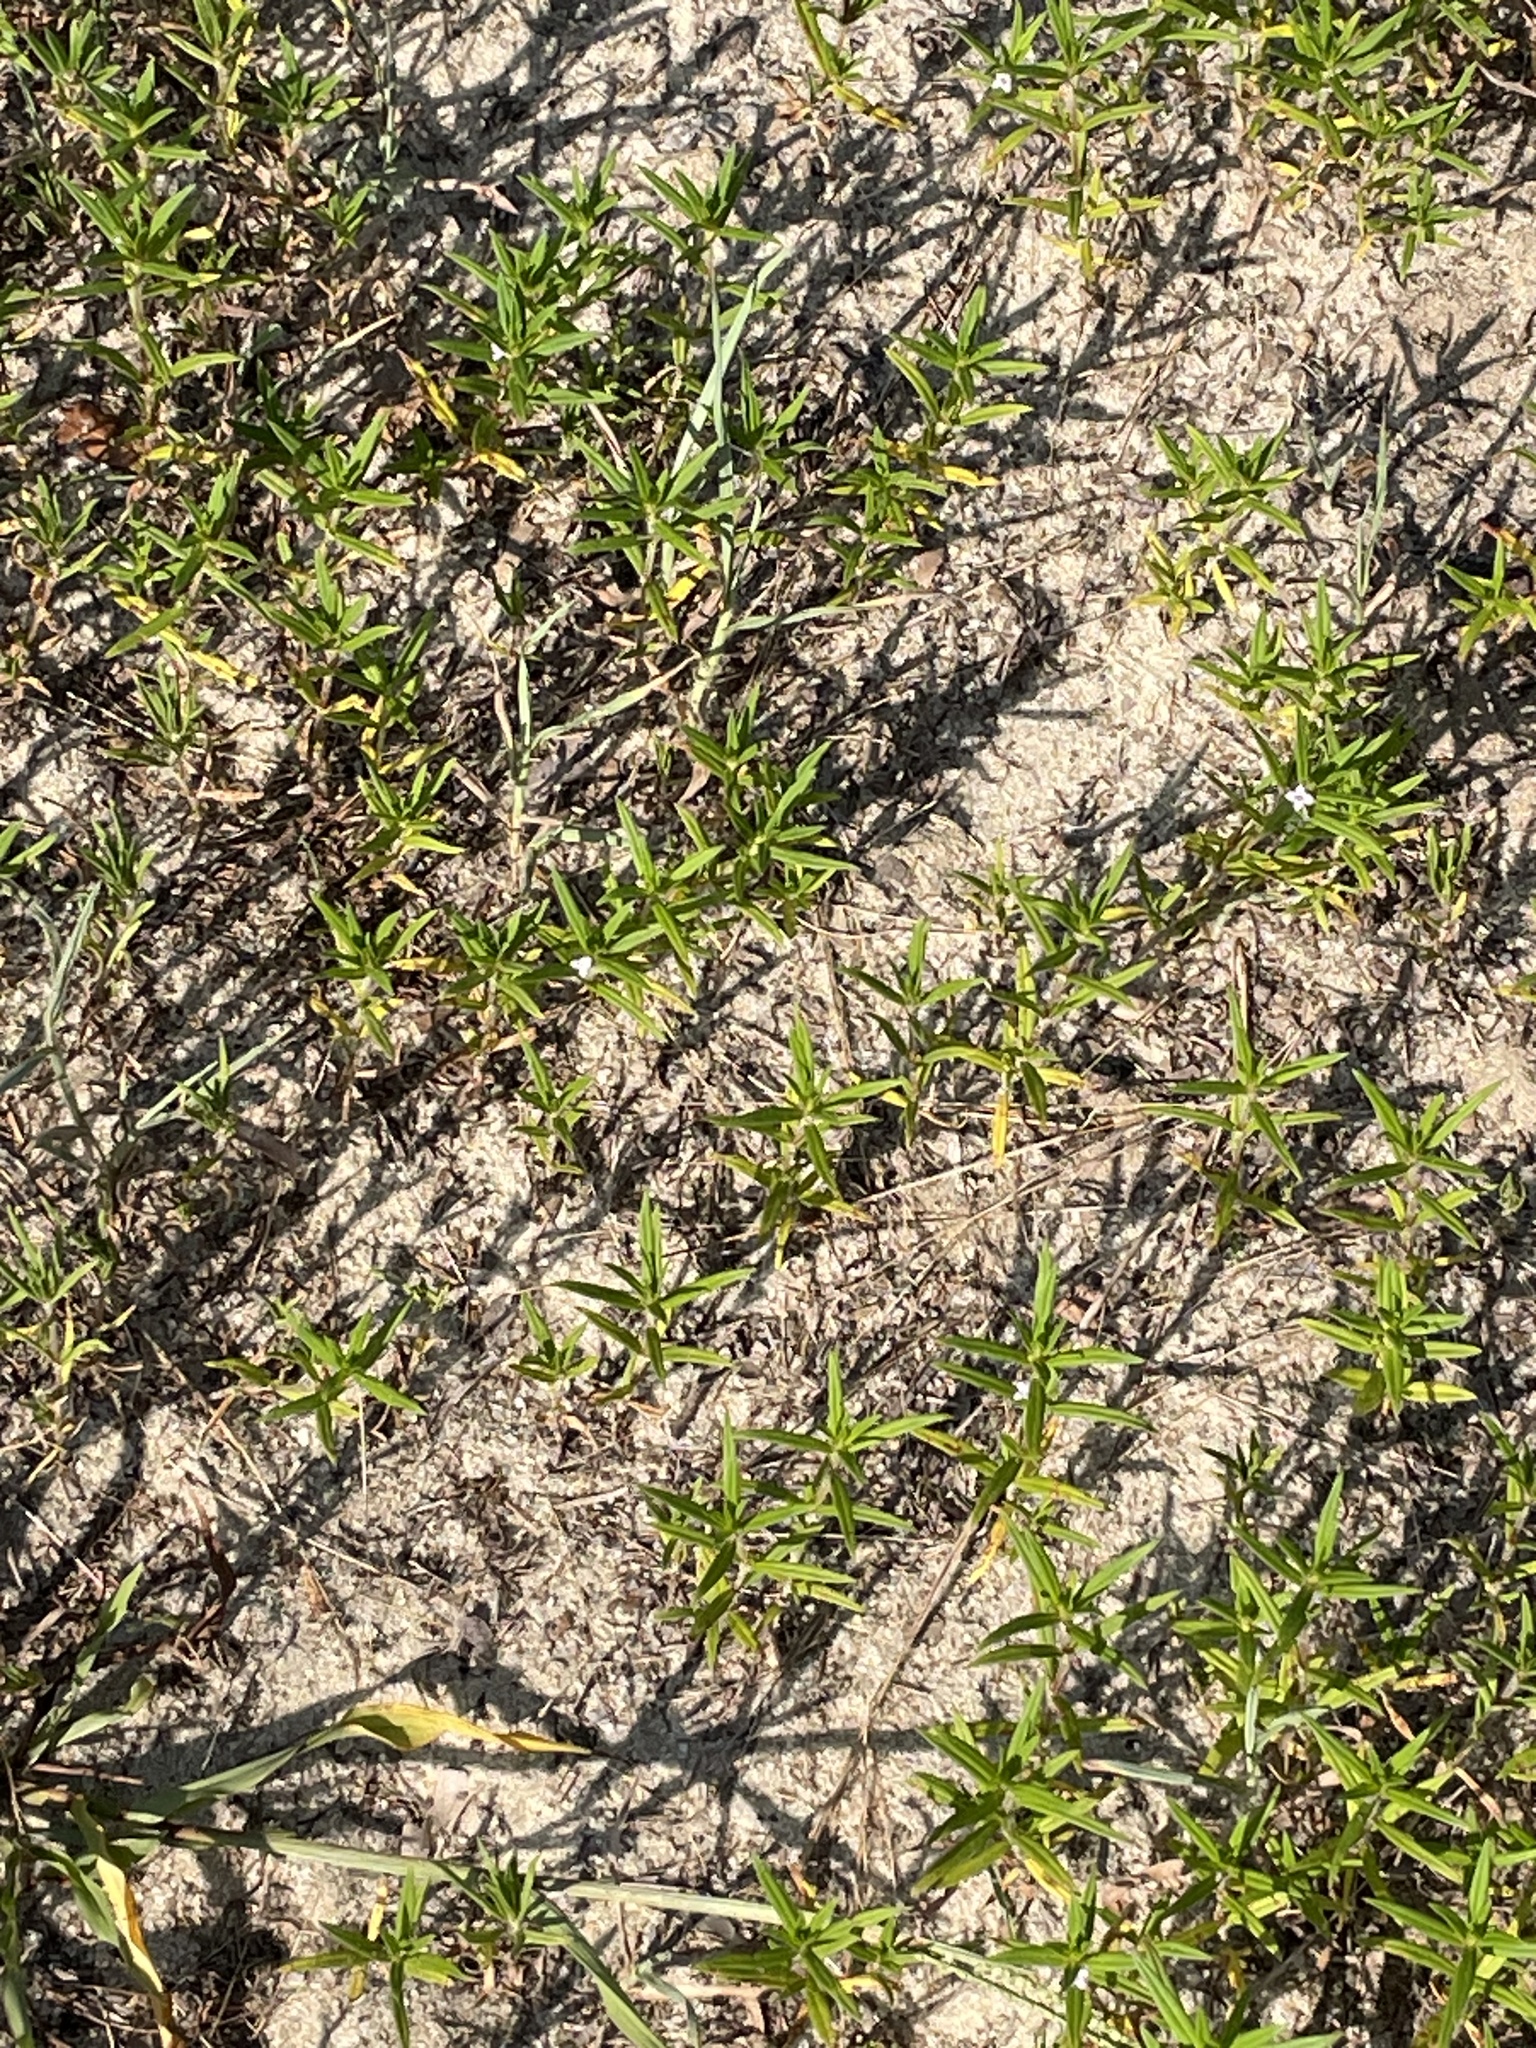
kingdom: Plantae
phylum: Tracheophyta
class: Magnoliopsida
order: Gentianales
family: Rubiaceae
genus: Hexasepalum
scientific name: Hexasepalum teres
